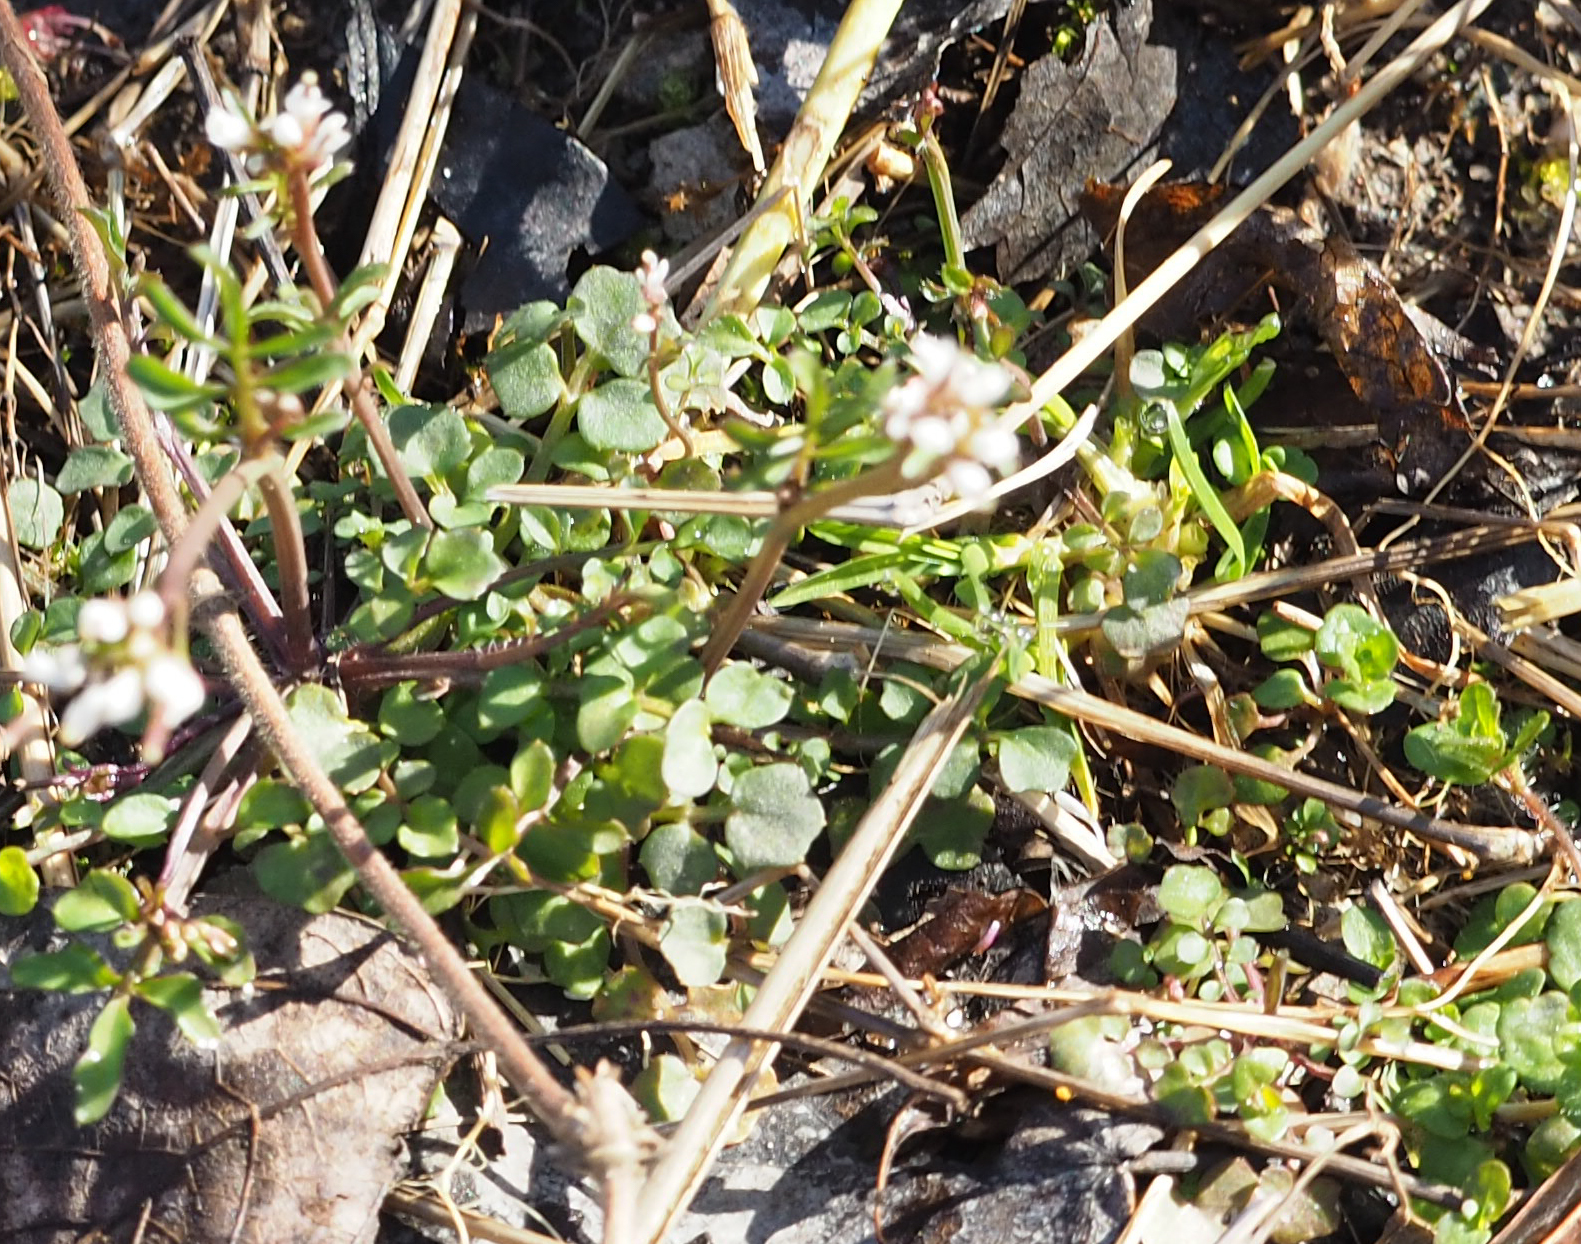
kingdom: Plantae
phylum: Tracheophyta
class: Magnoliopsida
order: Brassicales
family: Brassicaceae
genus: Cardamine
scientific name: Cardamine hirsuta
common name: Hairy bittercress
